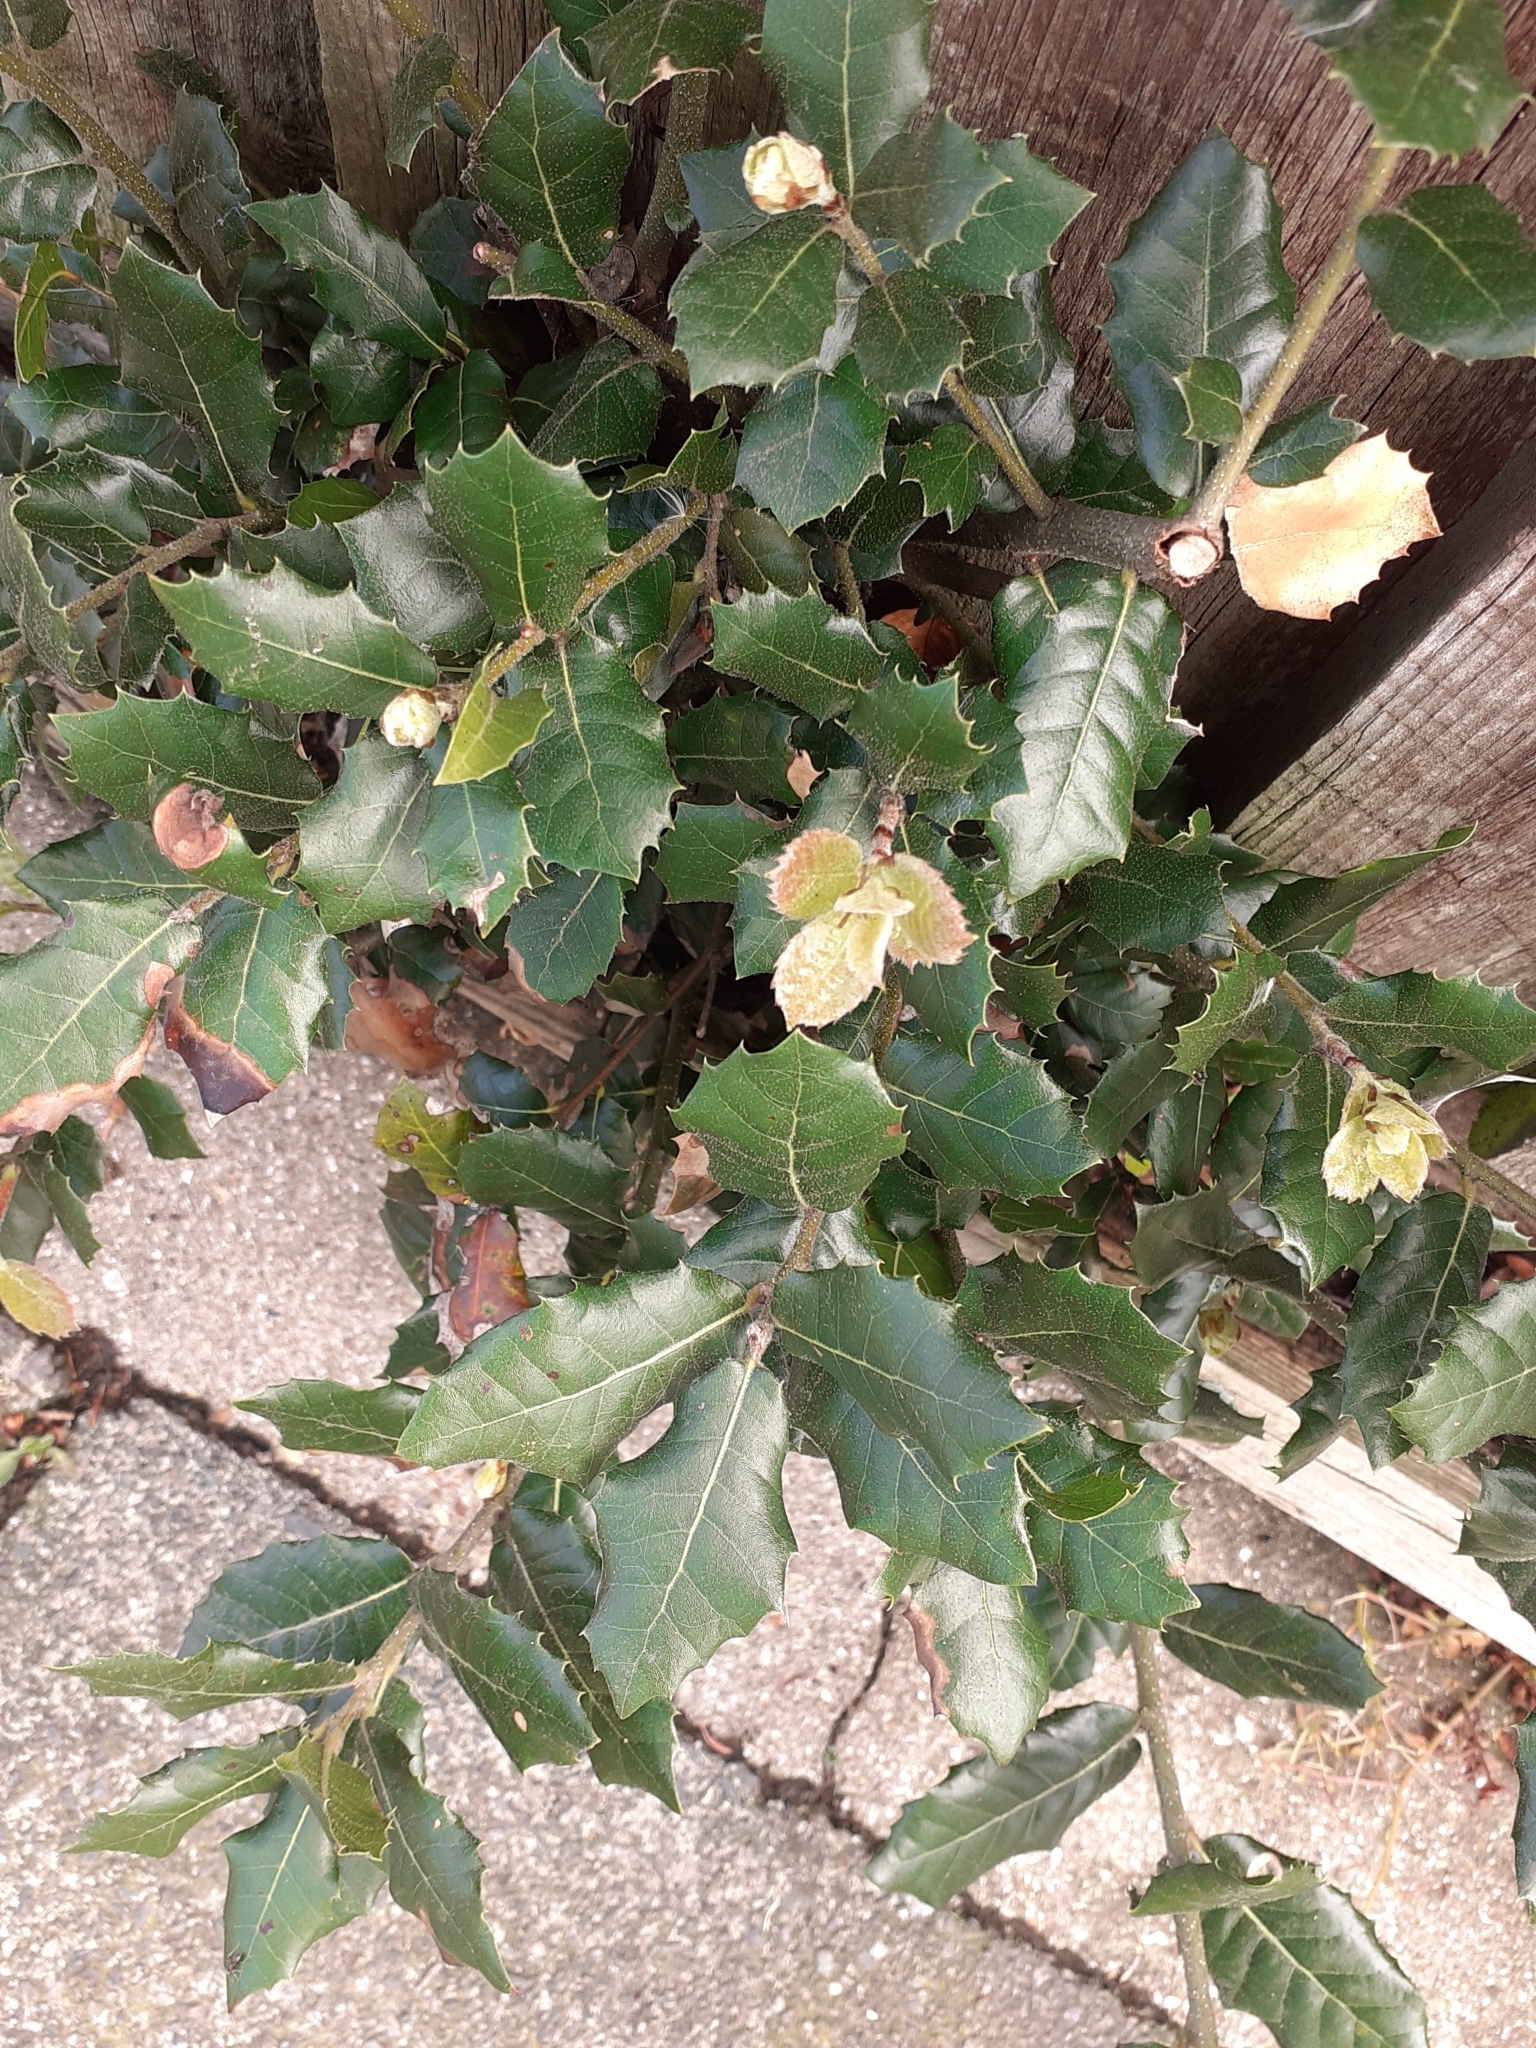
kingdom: Plantae
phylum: Tracheophyta
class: Magnoliopsida
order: Fagales
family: Fagaceae
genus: Quercus
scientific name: Quercus ilex
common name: Evergreen oak
